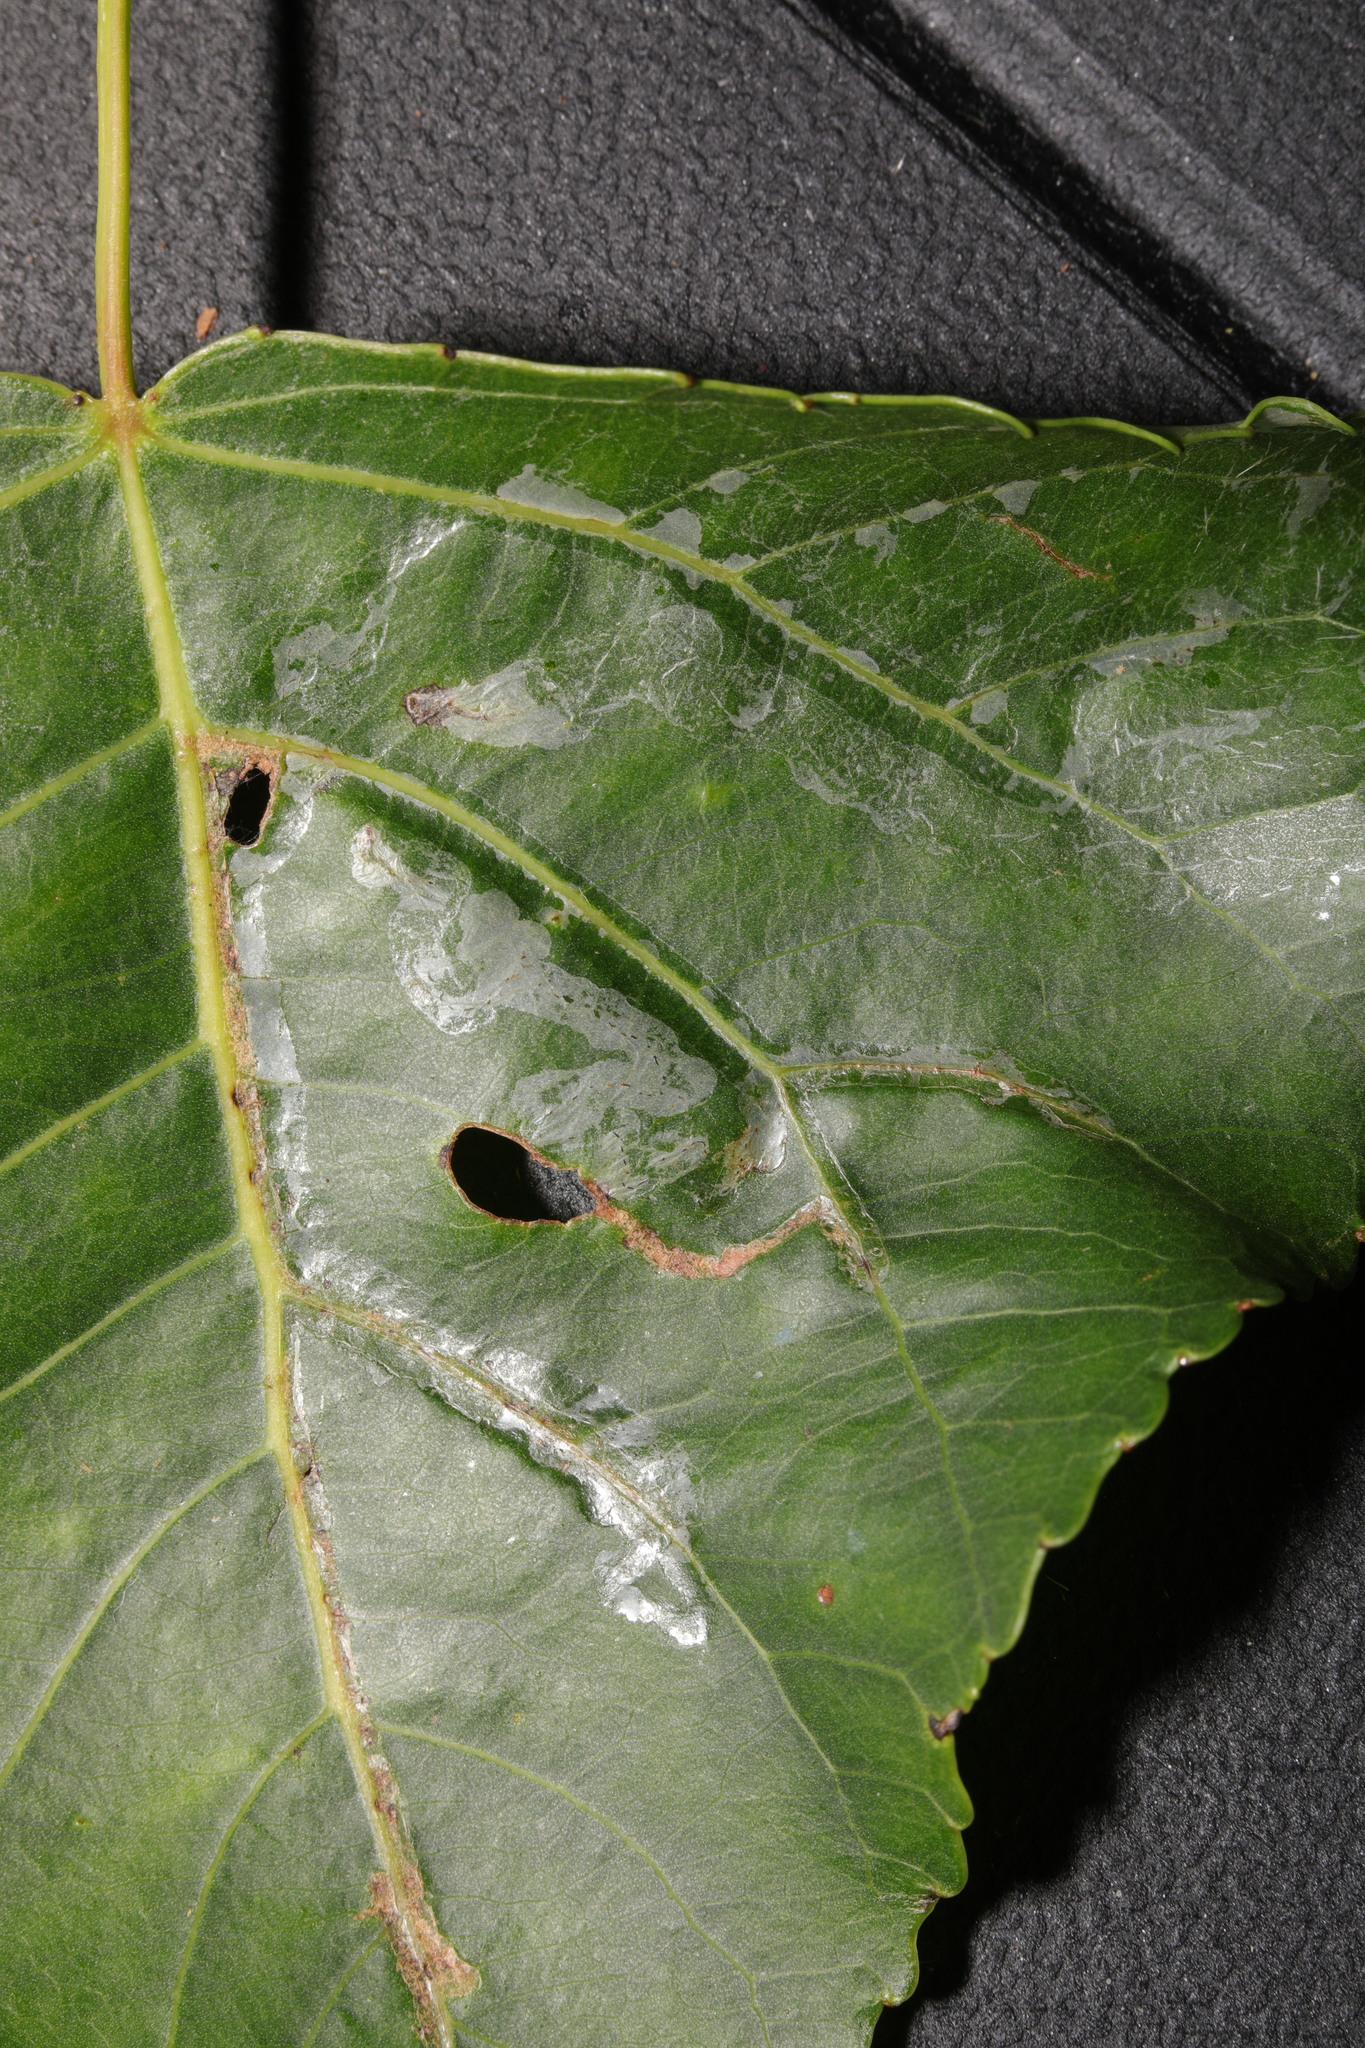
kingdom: Animalia
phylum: Arthropoda
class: Insecta
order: Lepidoptera
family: Gracillariidae
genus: Phyllocnistis
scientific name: Phyllocnistis unipunctella
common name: Poplar bent-wing
